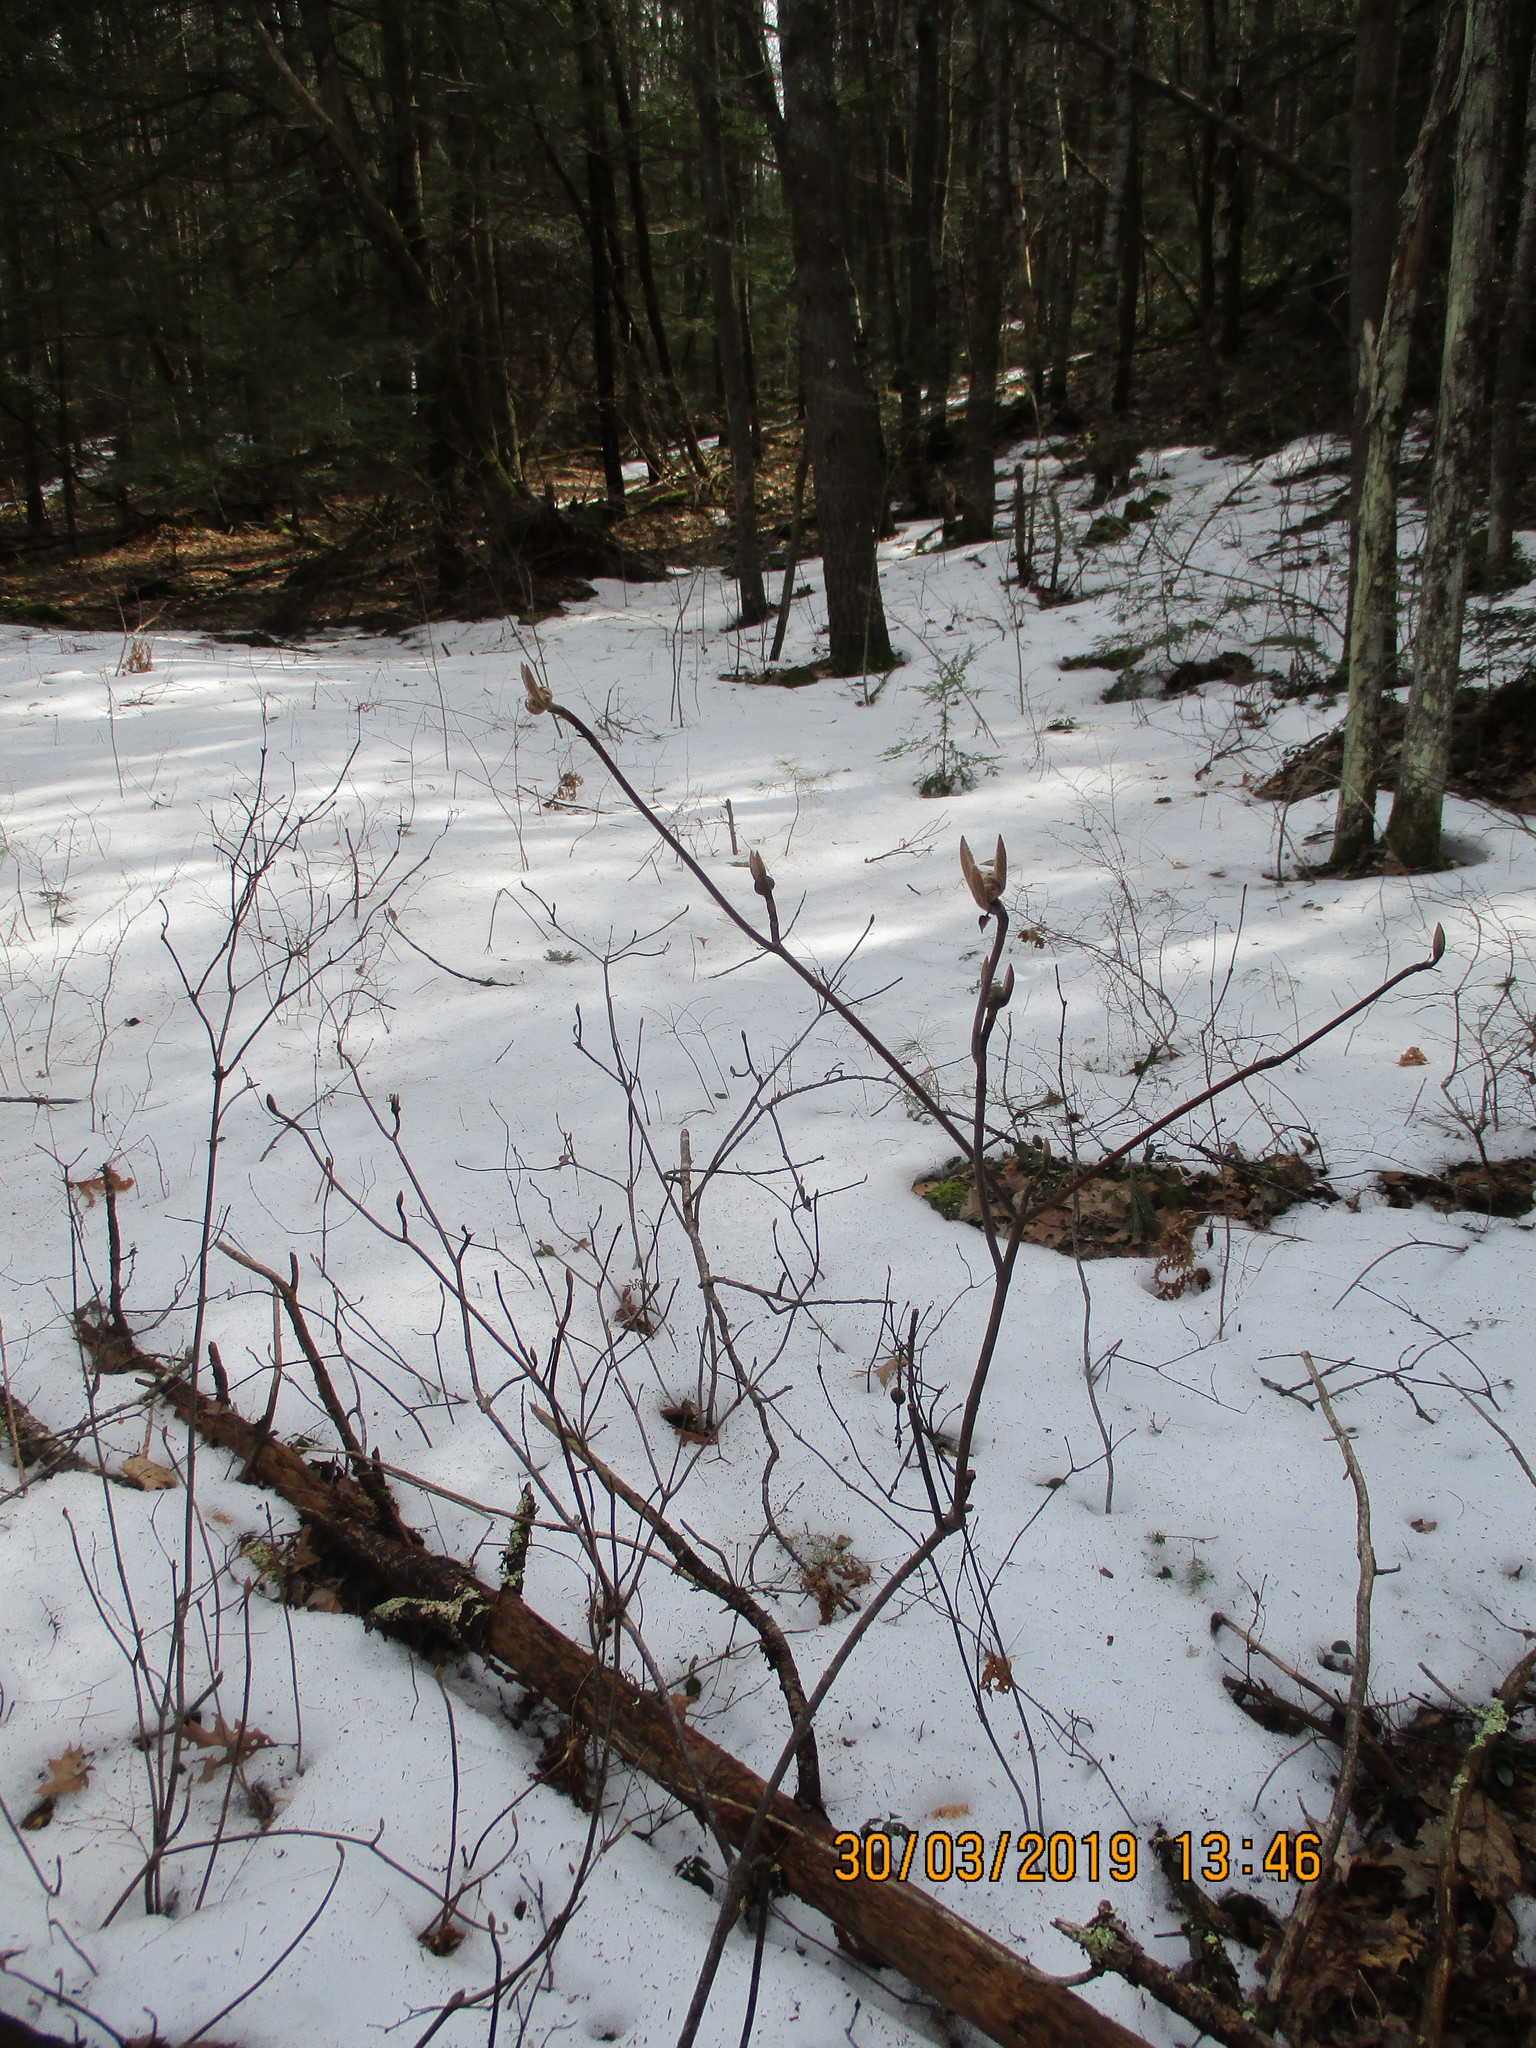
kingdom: Plantae
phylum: Tracheophyta
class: Magnoliopsida
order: Dipsacales
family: Viburnaceae
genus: Viburnum
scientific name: Viburnum lantanoides
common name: Hobblebush
